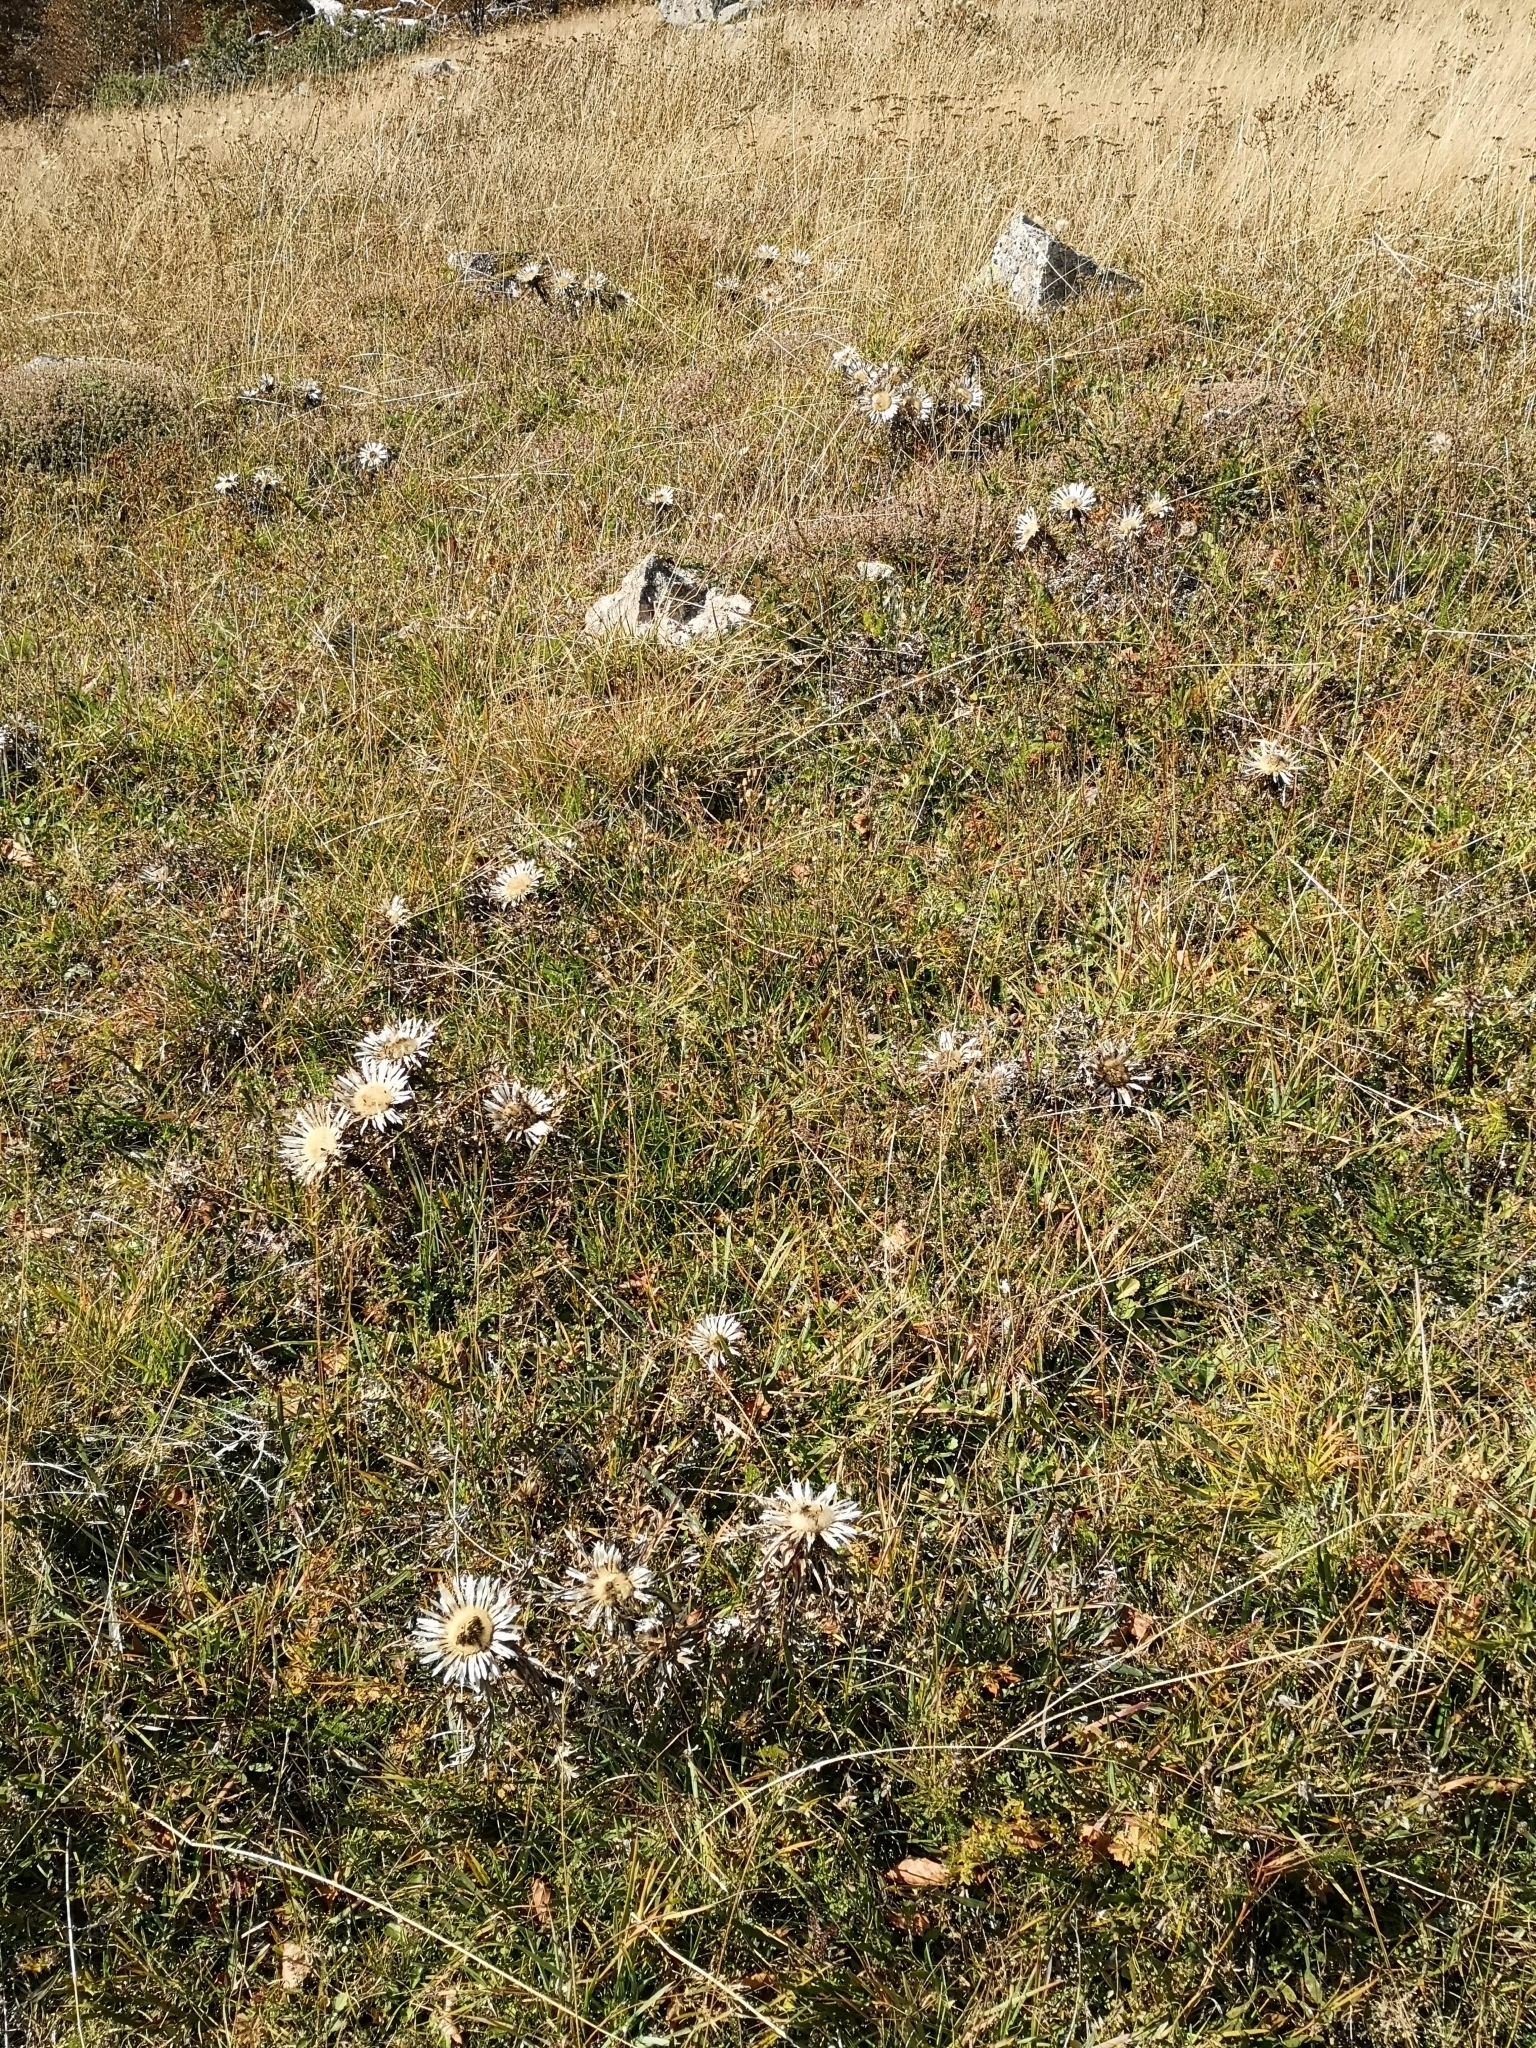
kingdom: Plantae
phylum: Tracheophyta
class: Magnoliopsida
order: Asterales
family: Asteraceae
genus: Carlina
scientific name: Carlina acaulis
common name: Stemless carline thistle
